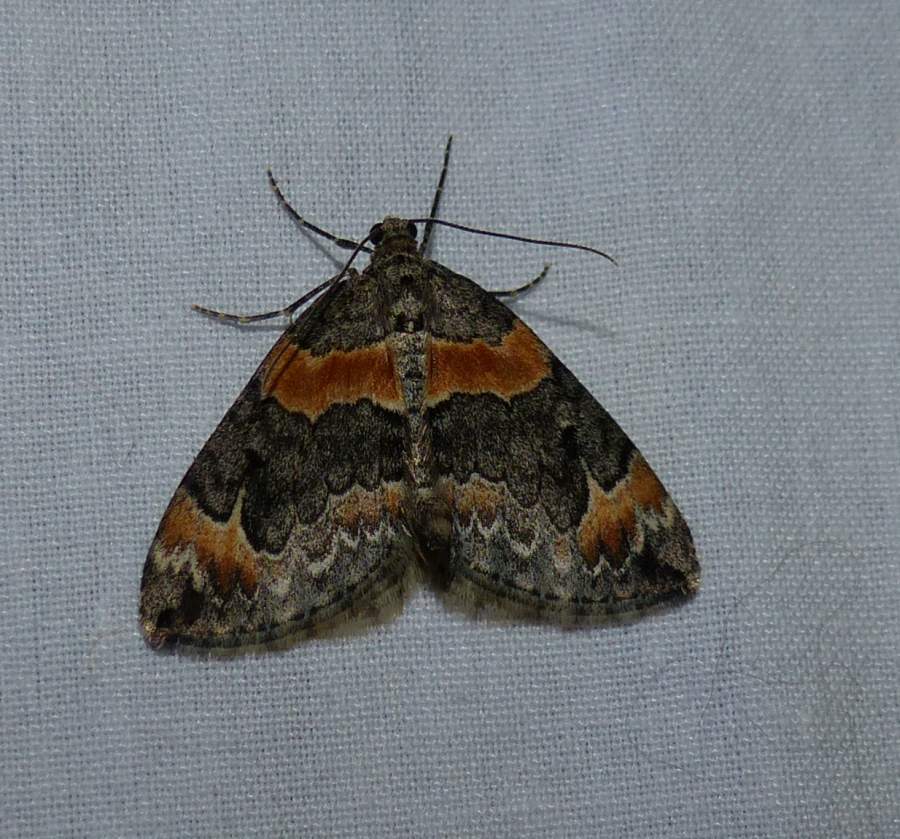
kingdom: Animalia
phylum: Arthropoda
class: Insecta
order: Lepidoptera
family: Geometridae
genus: Dysstroma
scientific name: Dysstroma hersiliata
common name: Orange-barred carpet
